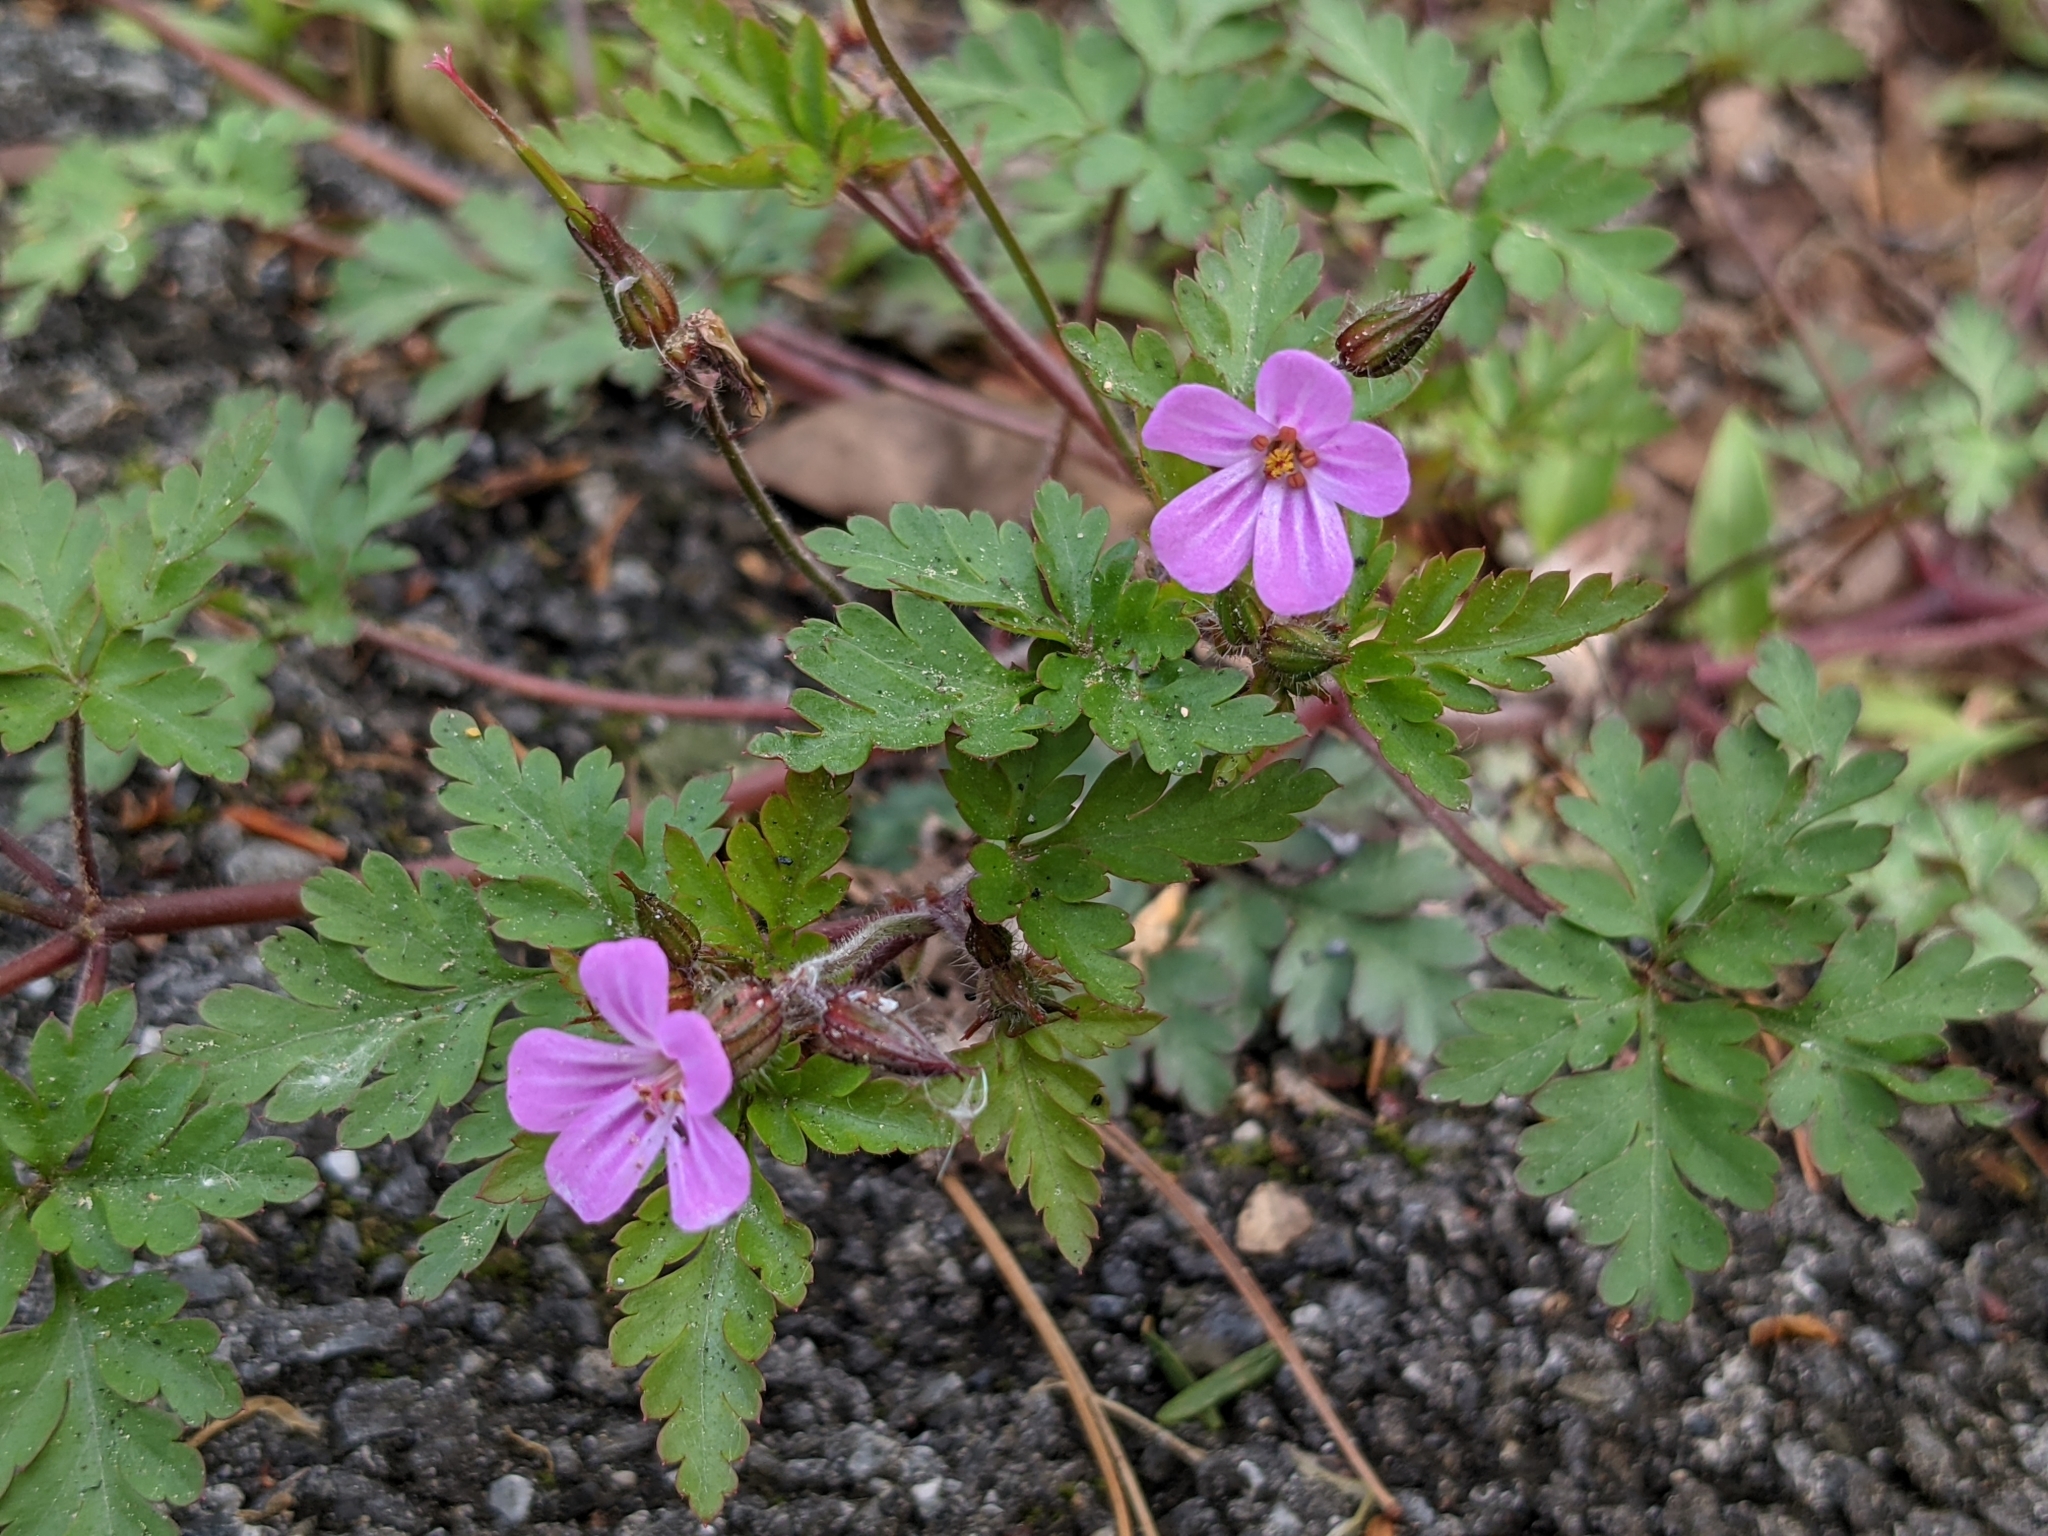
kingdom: Plantae
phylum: Tracheophyta
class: Magnoliopsida
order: Geraniales
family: Geraniaceae
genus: Geranium
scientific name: Geranium robertianum
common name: Herb-robert
